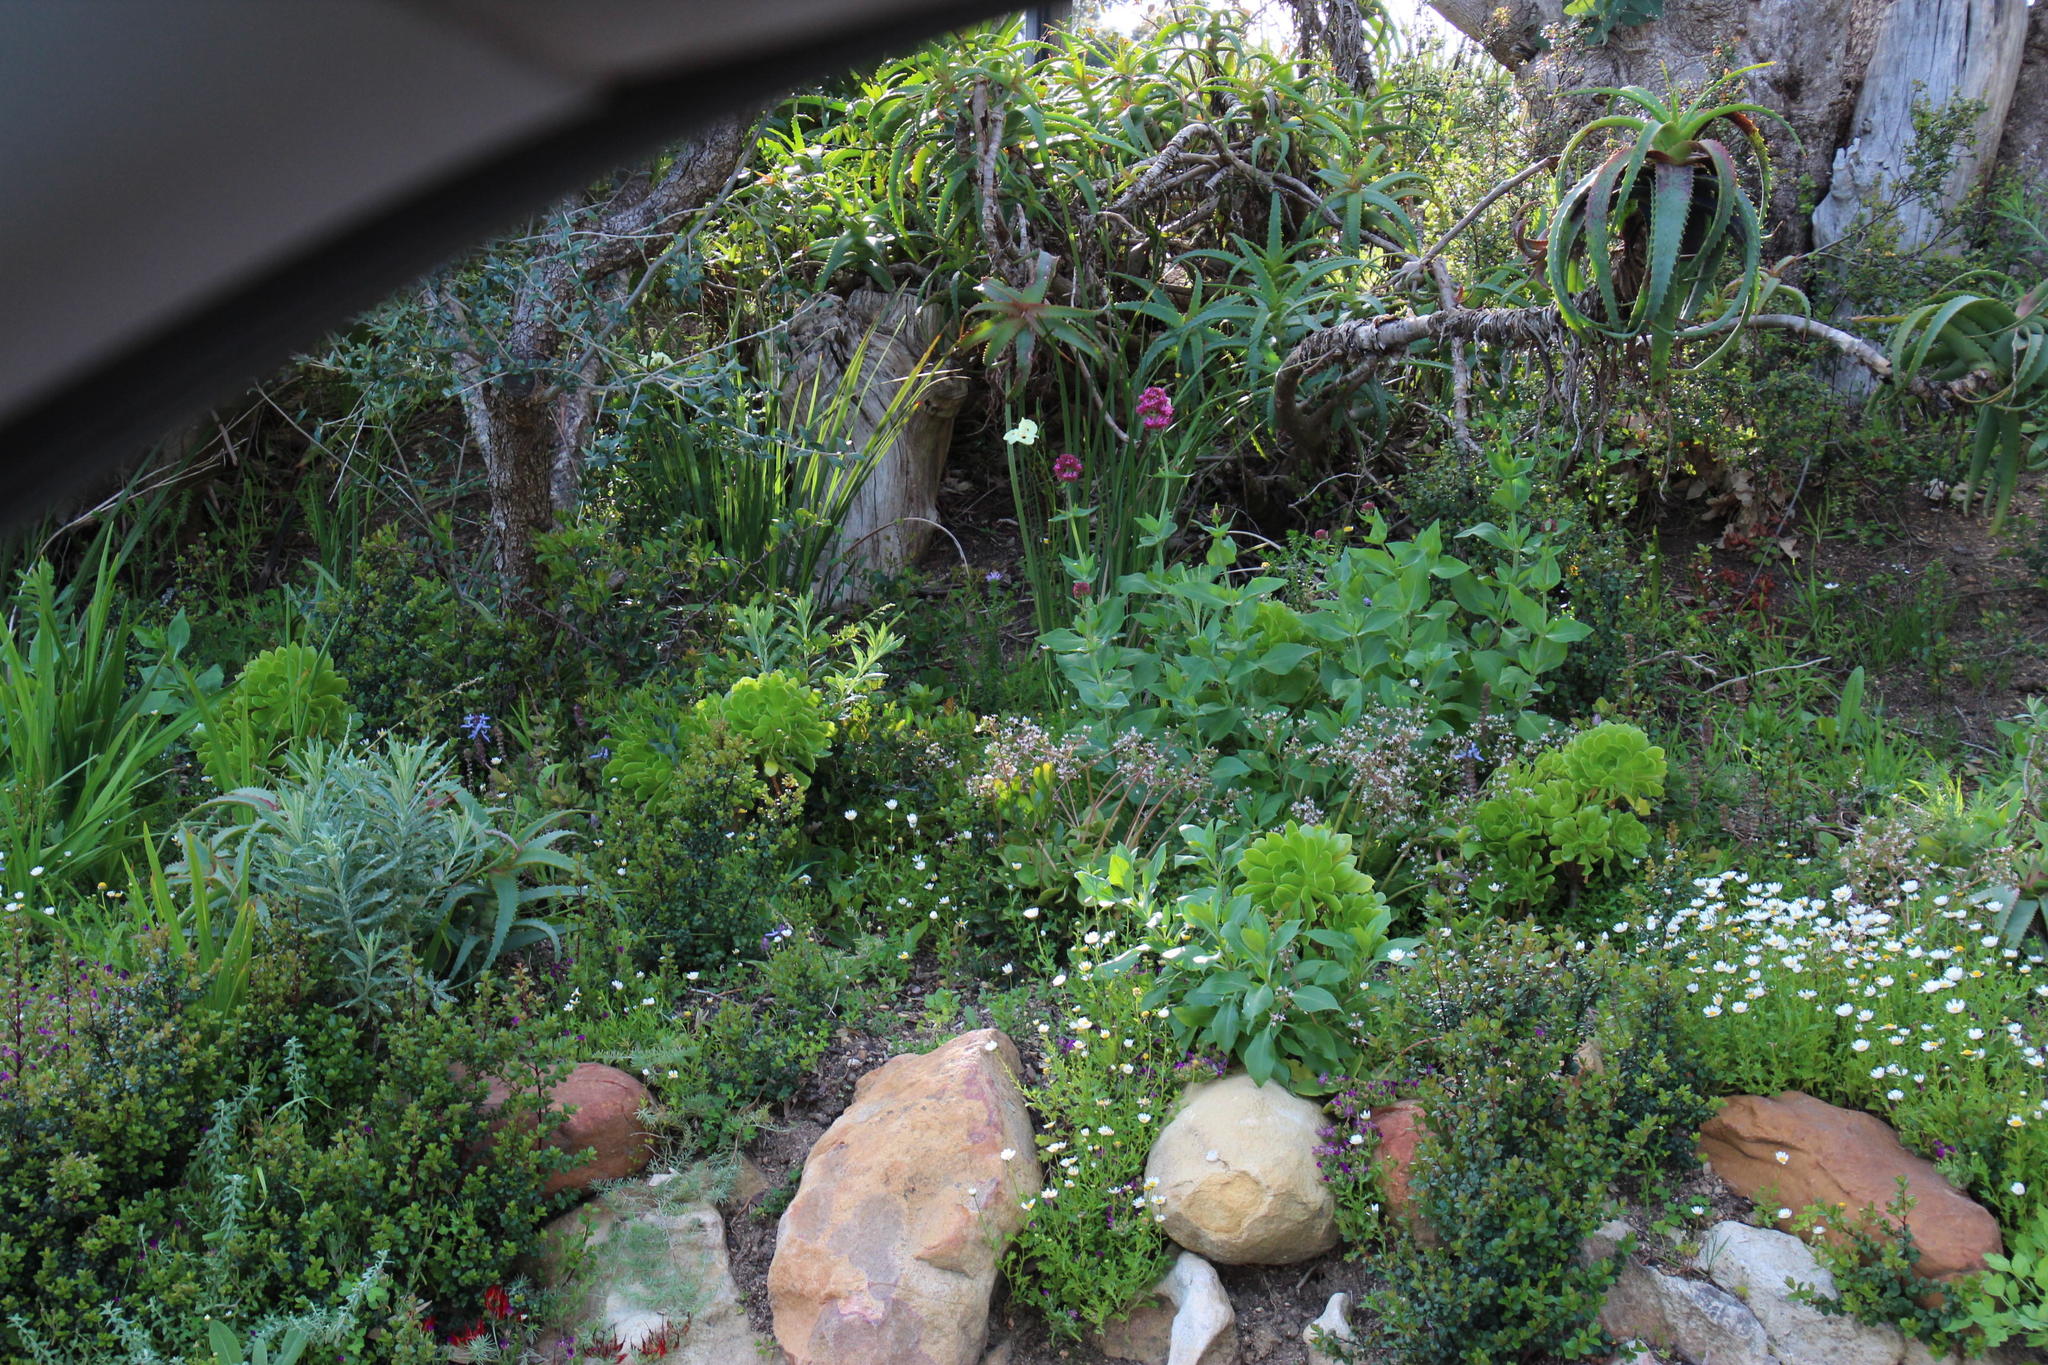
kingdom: Plantae
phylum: Tracheophyta
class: Magnoliopsida
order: Dipsacales
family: Caprifoliaceae
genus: Centranthus
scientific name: Centranthus ruber
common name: Red valerian
